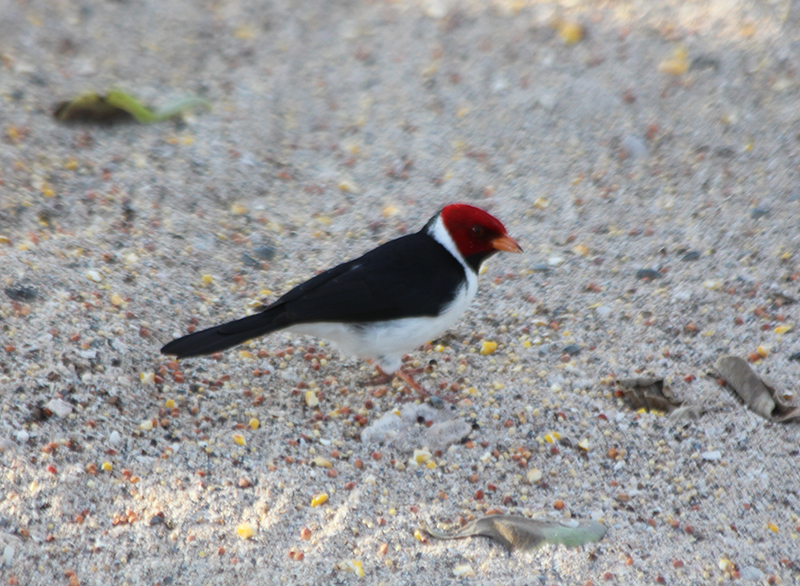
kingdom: Animalia
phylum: Chordata
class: Aves
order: Passeriformes
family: Thraupidae
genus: Paroaria
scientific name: Paroaria capitata
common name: Yellow-billed cardinal
